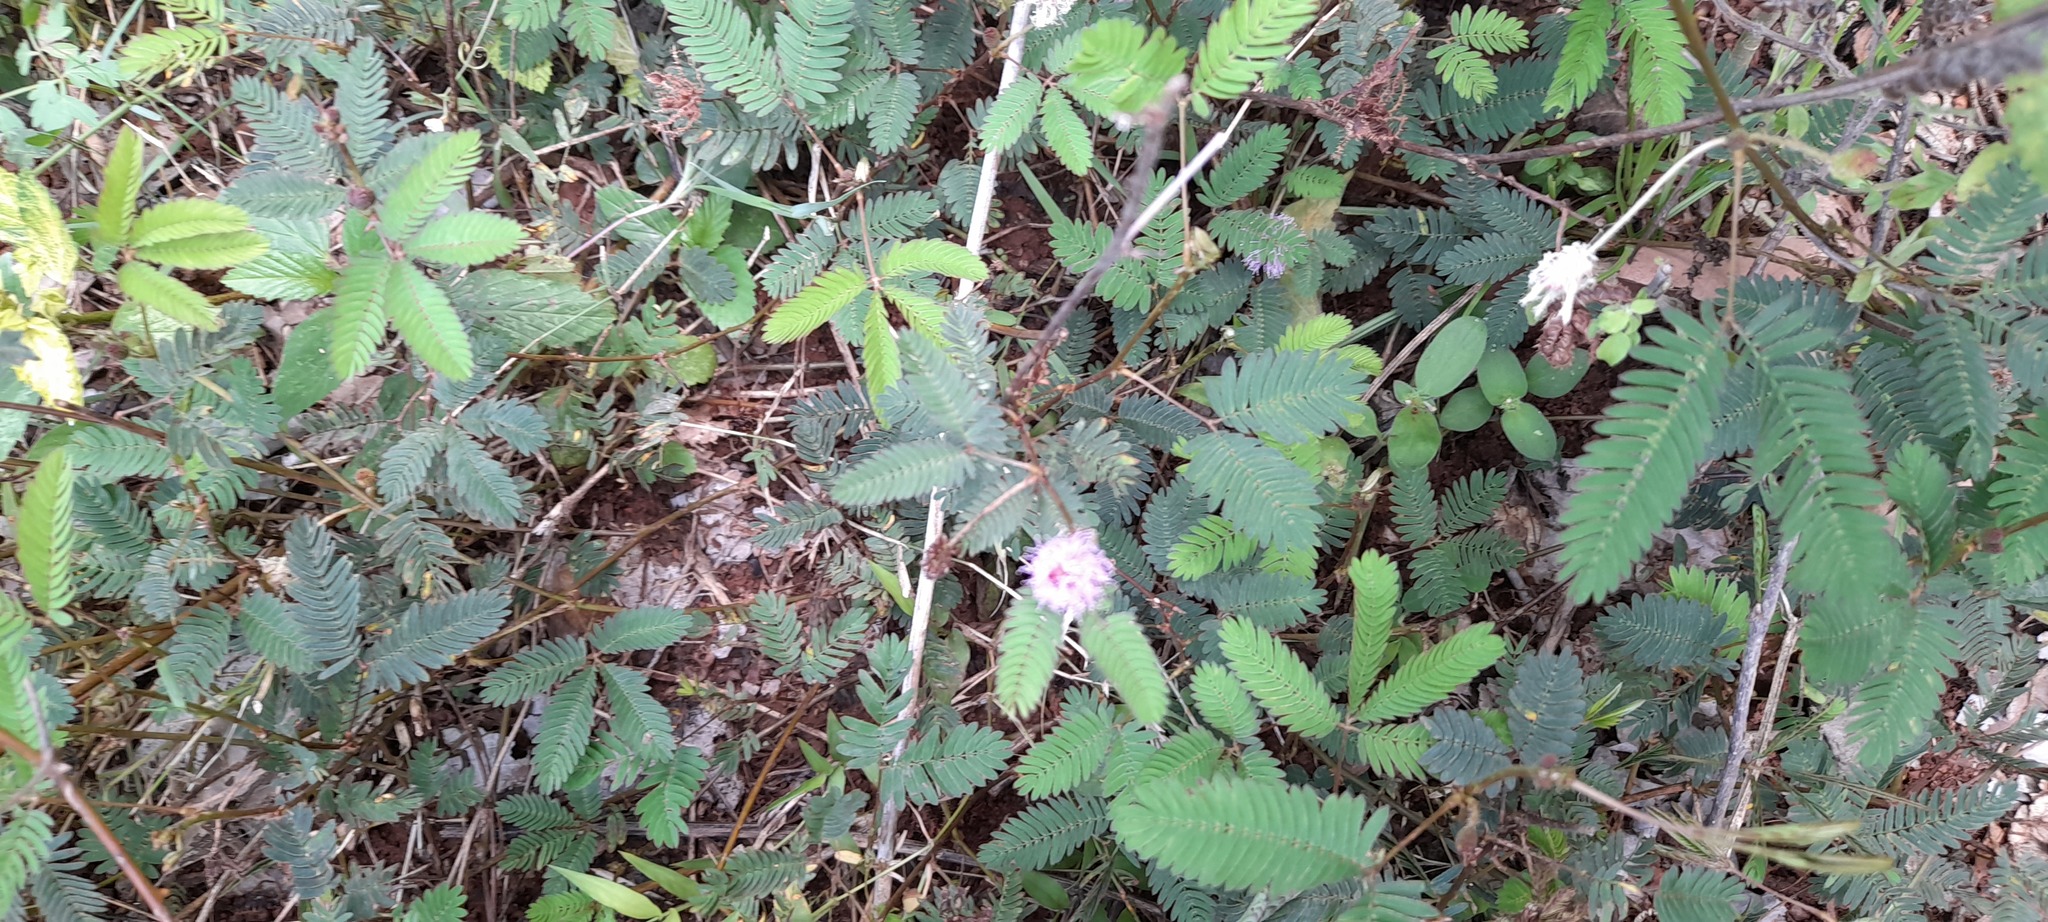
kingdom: Plantae
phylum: Tracheophyta
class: Magnoliopsida
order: Fabales
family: Fabaceae
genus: Mimosa
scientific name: Mimosa pudica
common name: Sensitive plant
